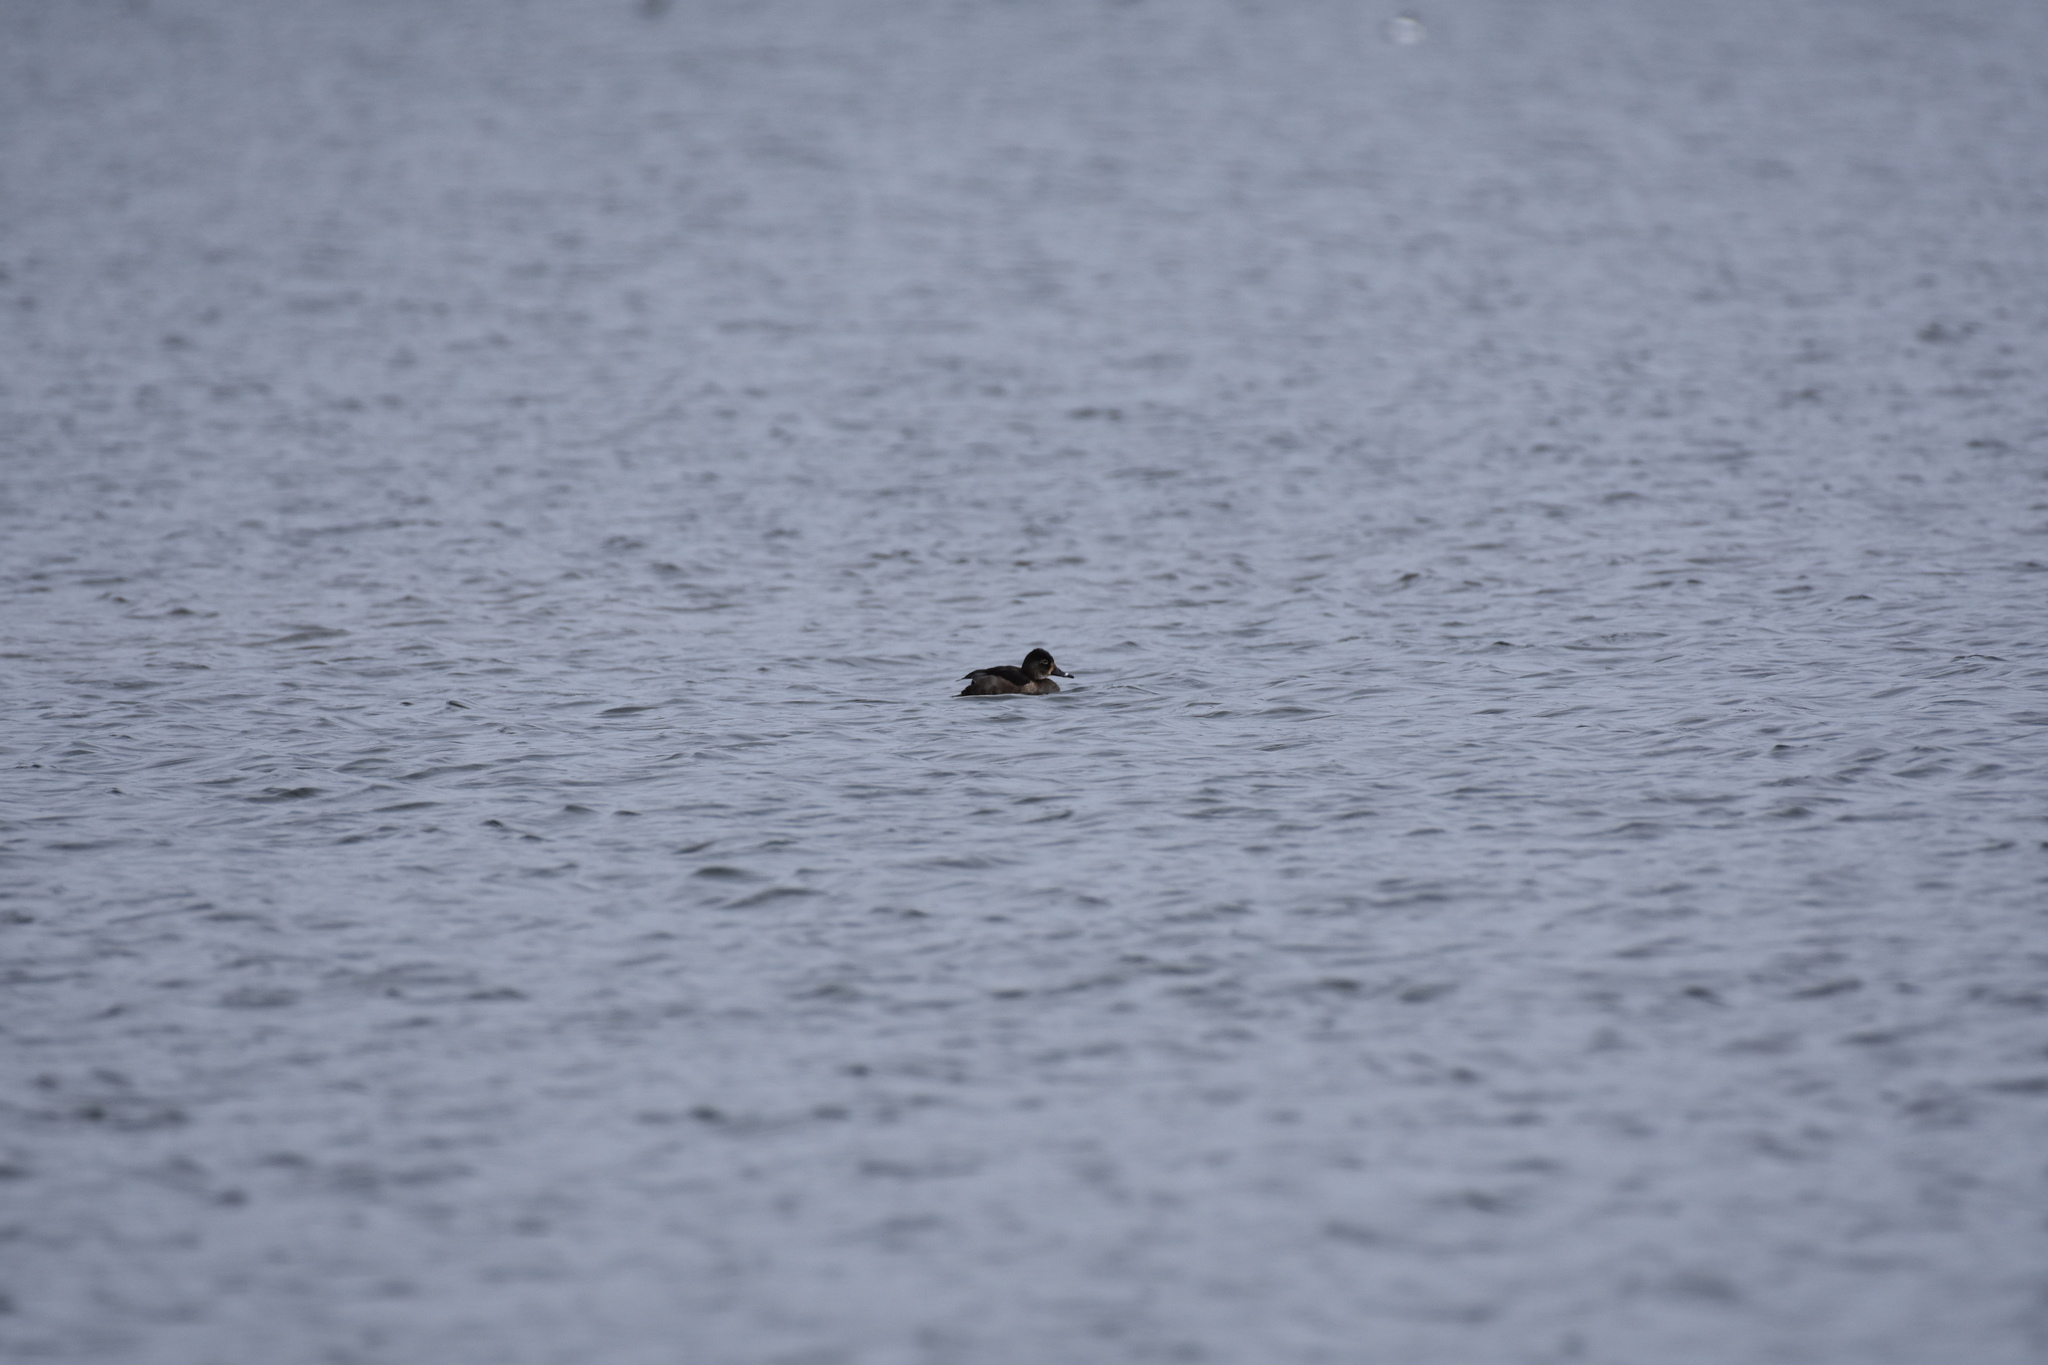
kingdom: Animalia
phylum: Chordata
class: Aves
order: Anseriformes
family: Anatidae
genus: Aythya
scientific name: Aythya collaris
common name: Ring-necked duck
